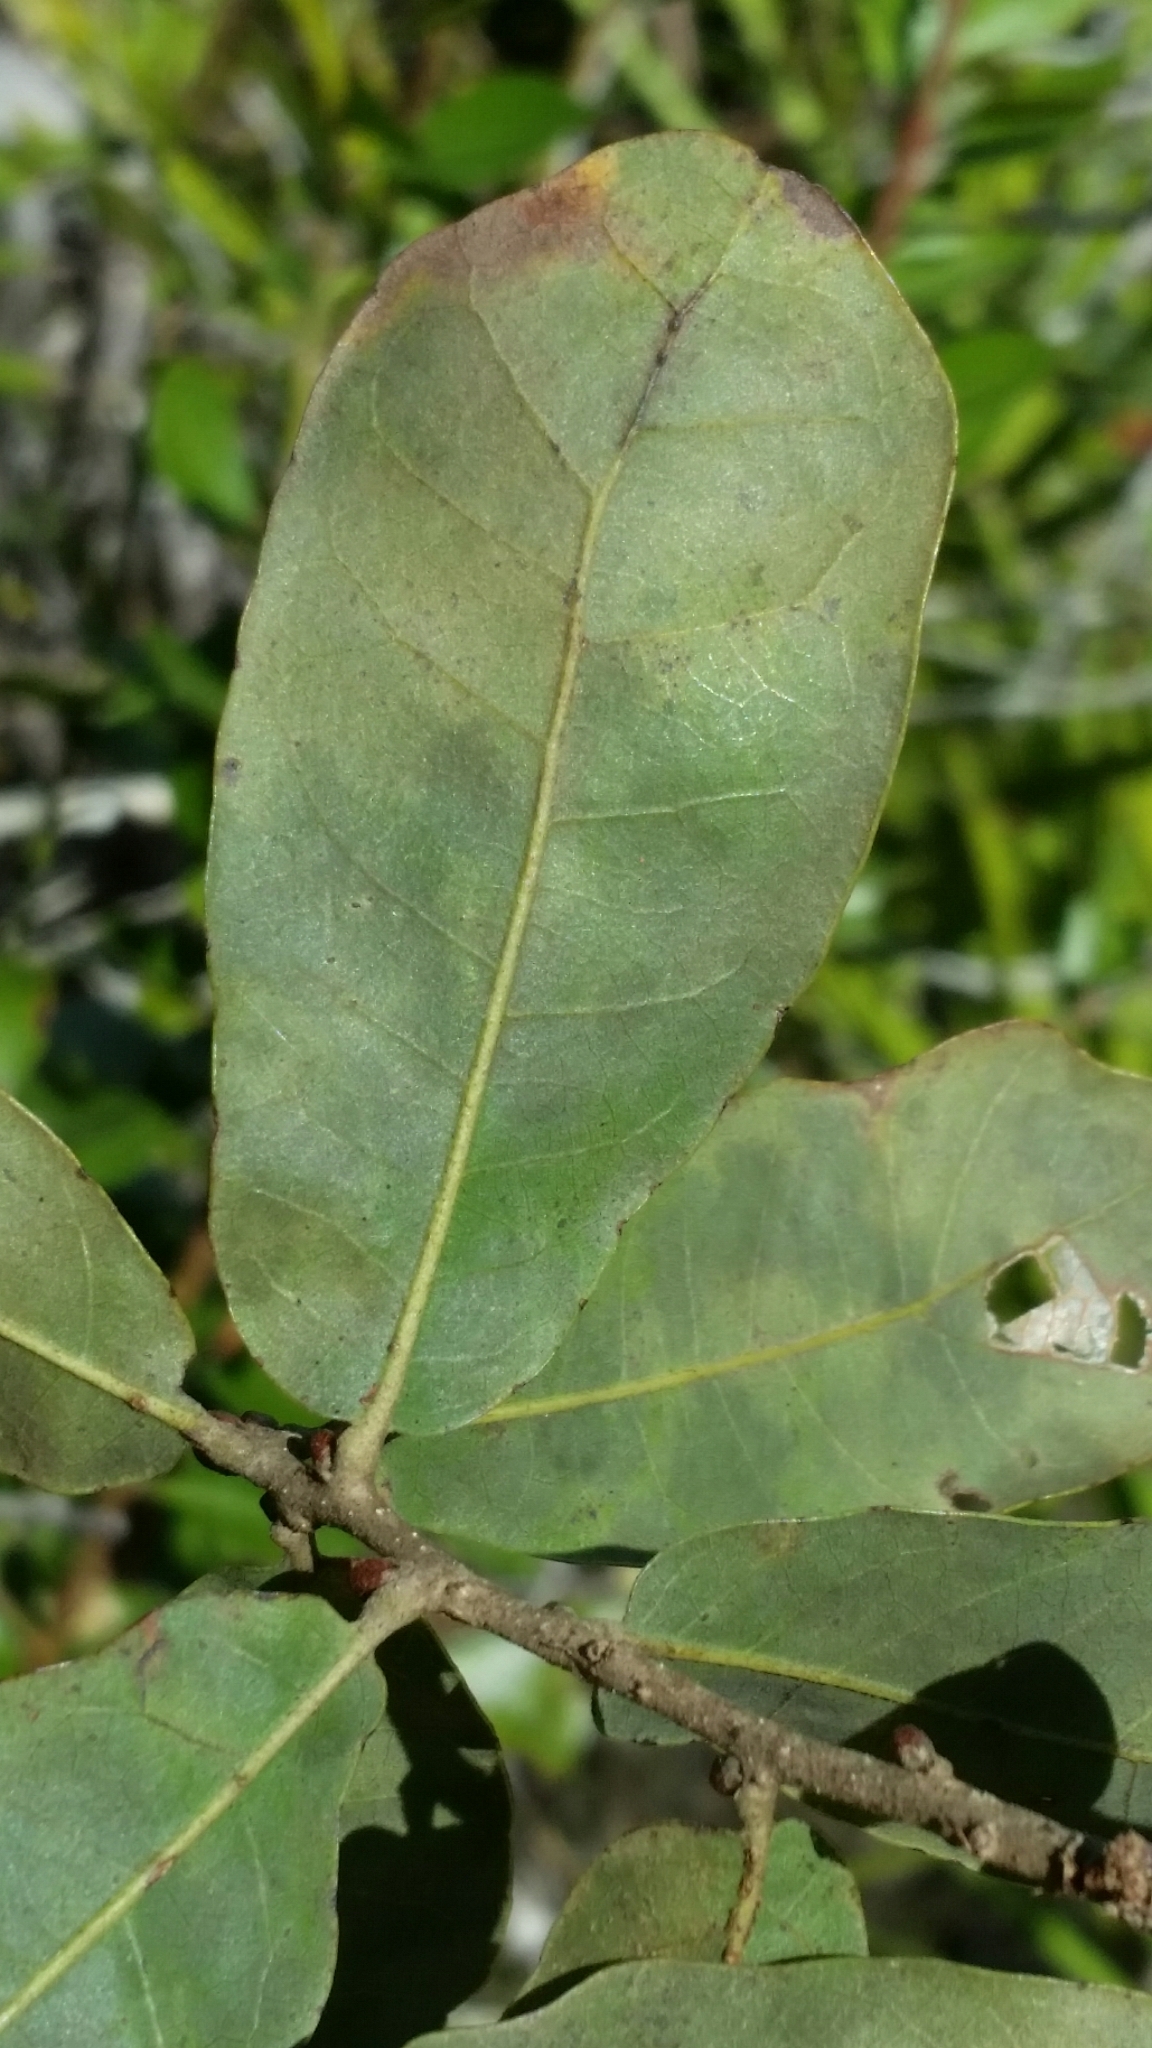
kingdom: Plantae
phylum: Tracheophyta
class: Magnoliopsida
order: Fagales
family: Fagaceae
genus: Quercus
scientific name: Quercus chapmanii
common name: Chapman oak
